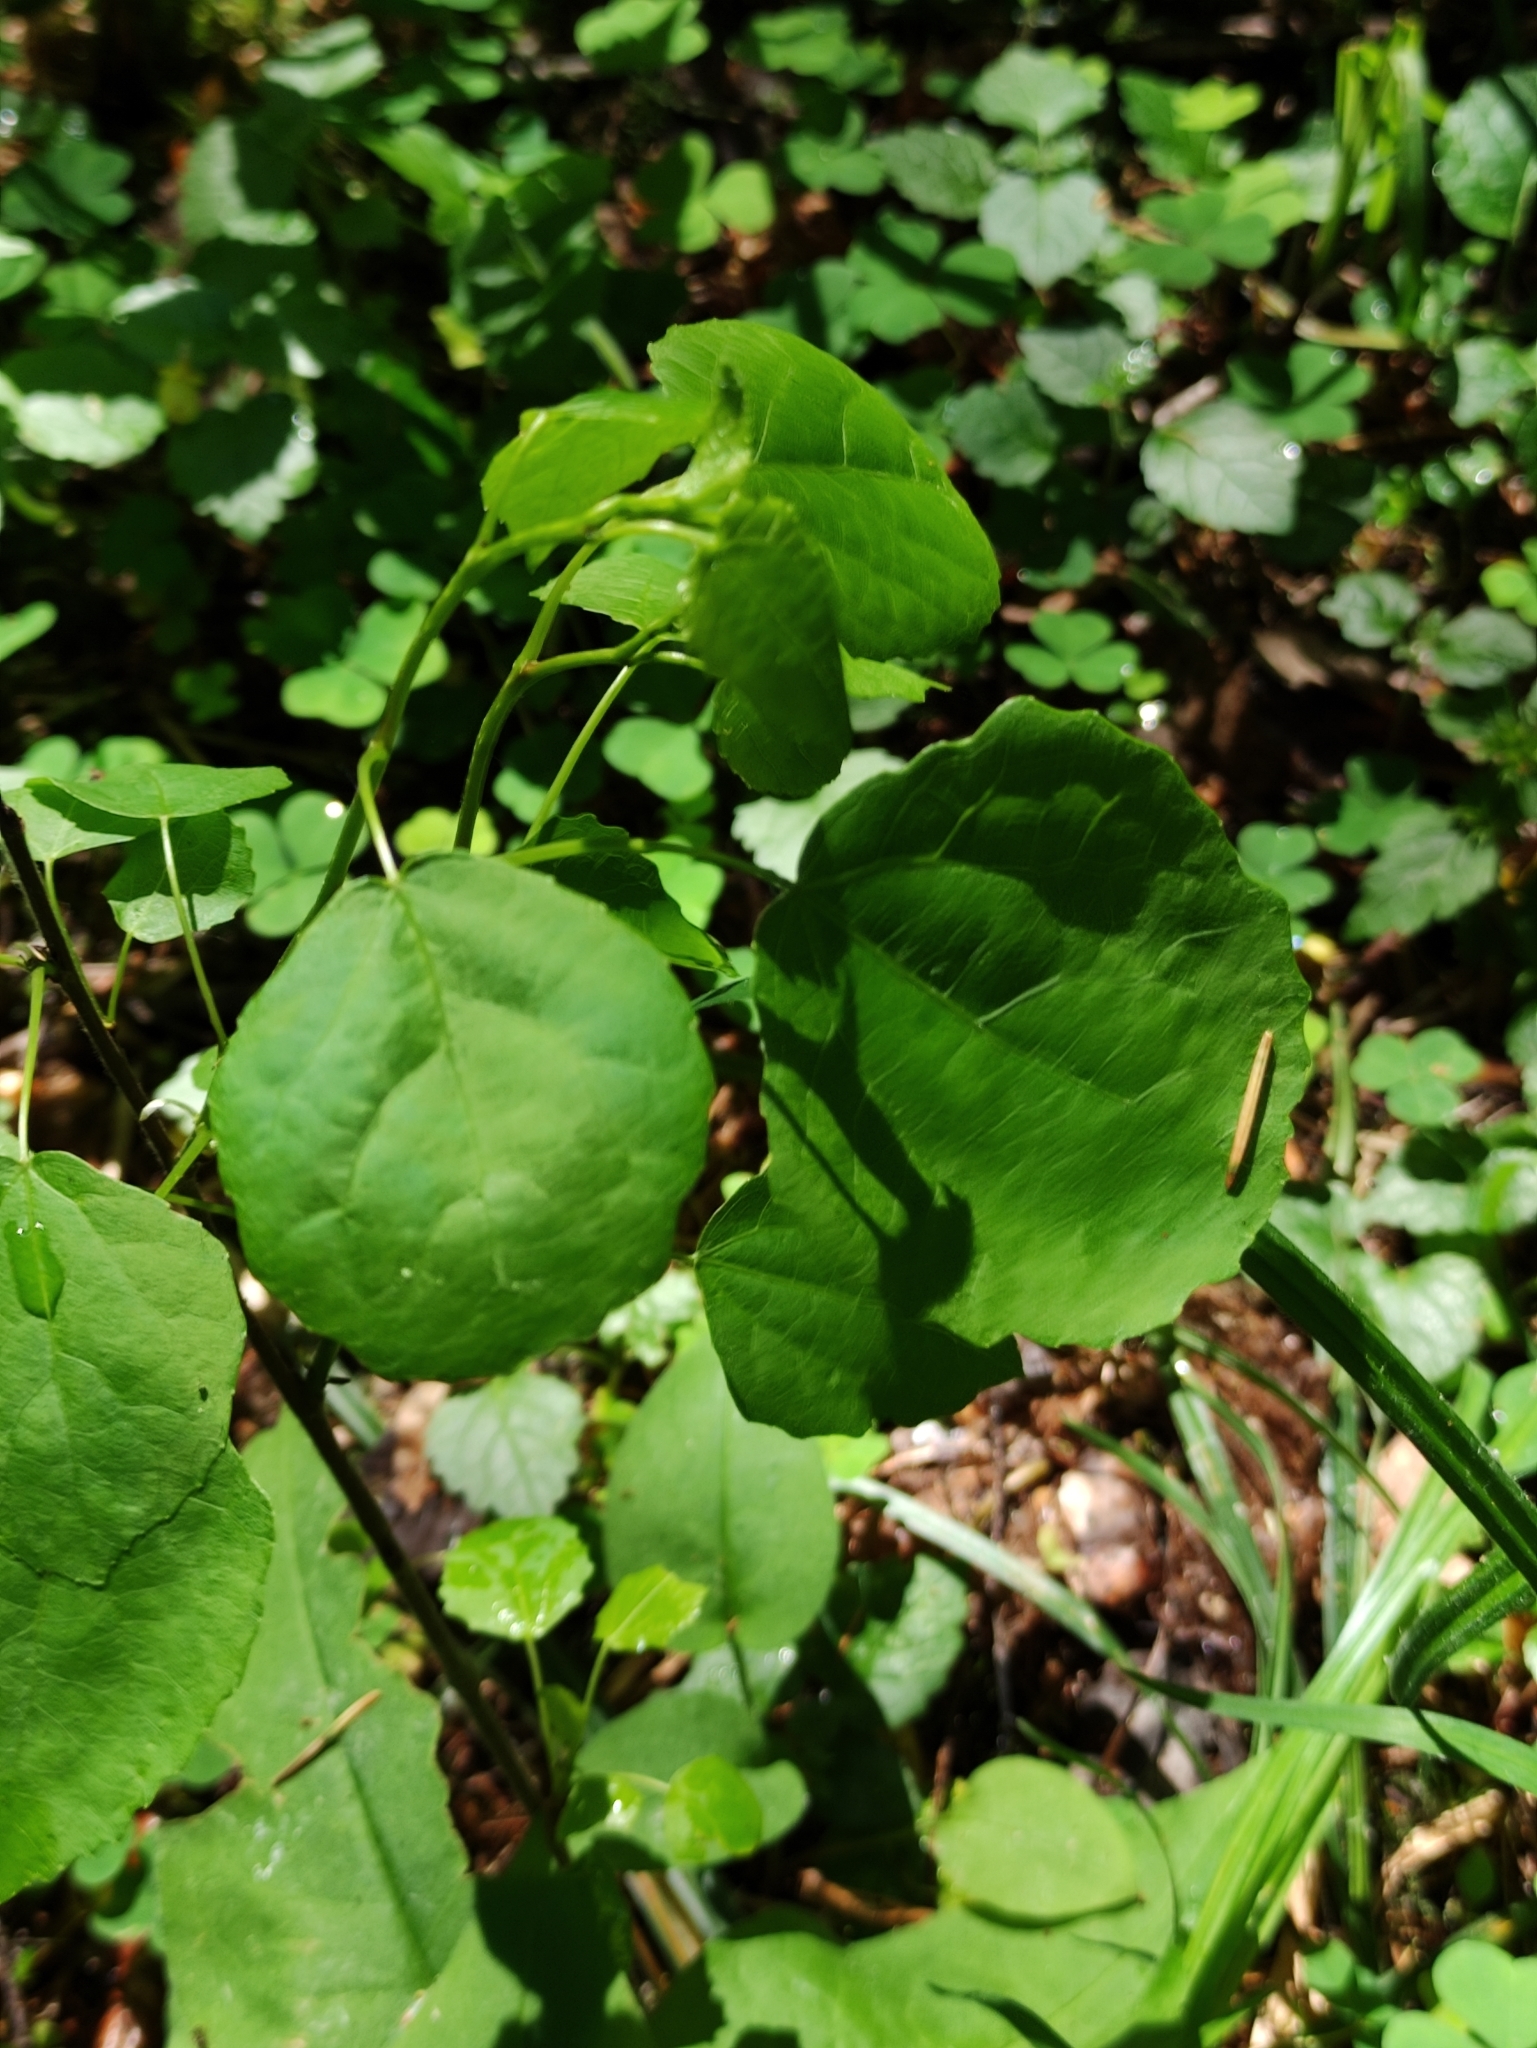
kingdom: Plantae
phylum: Tracheophyta
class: Magnoliopsida
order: Malpighiales
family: Salicaceae
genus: Populus
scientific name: Populus tremula
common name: European aspen
